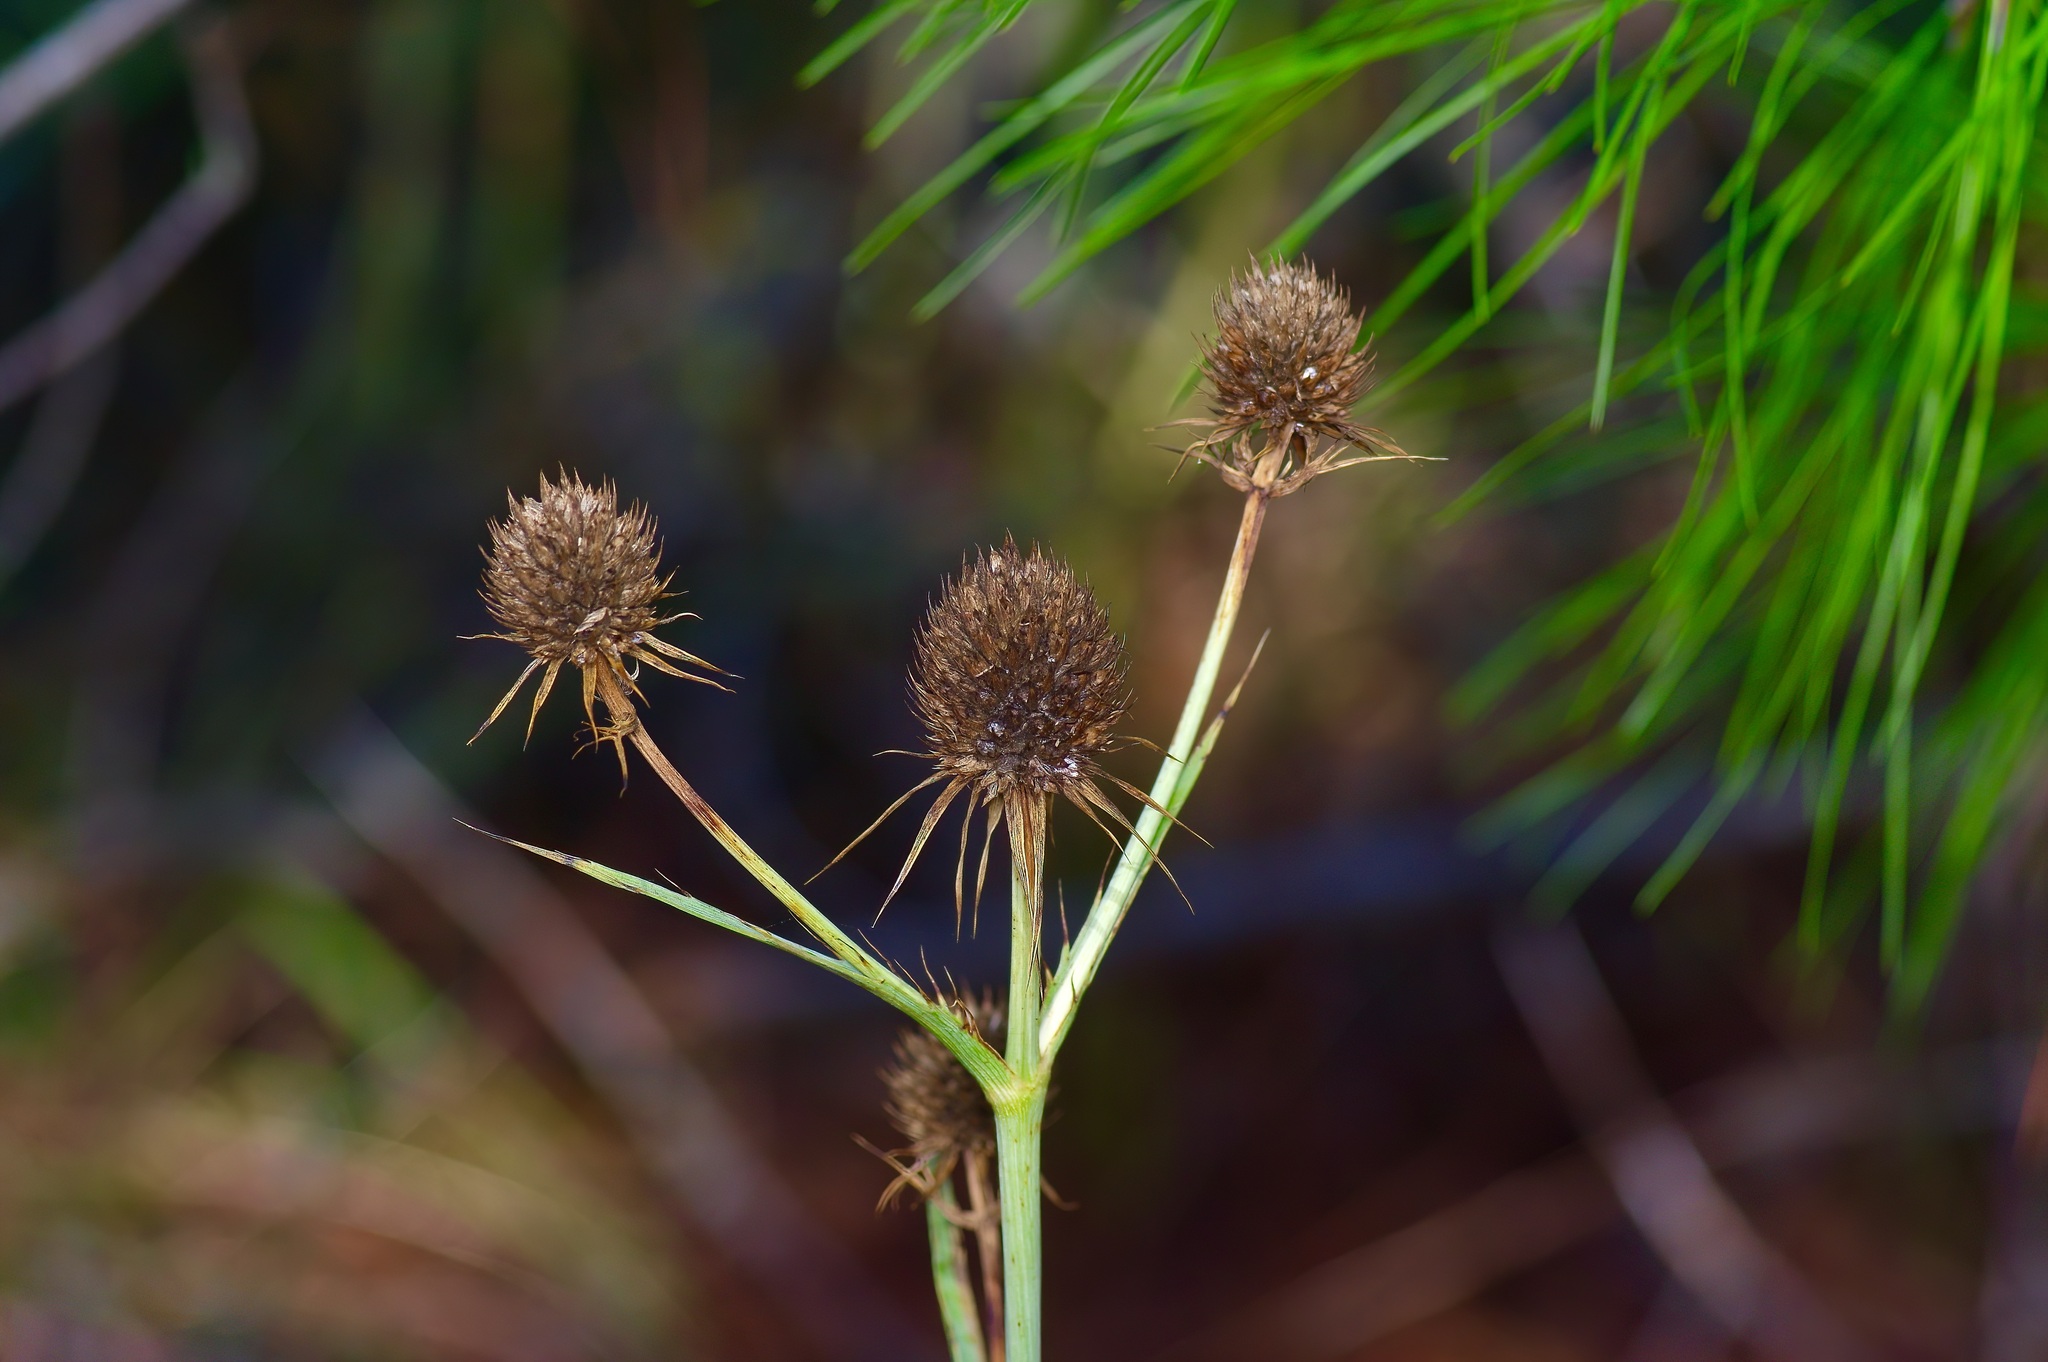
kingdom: Plantae
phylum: Tracheophyta
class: Magnoliopsida
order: Apiales
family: Apiaceae
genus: Eryngium
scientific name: Eryngium yuccifolium
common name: Button eryngo
